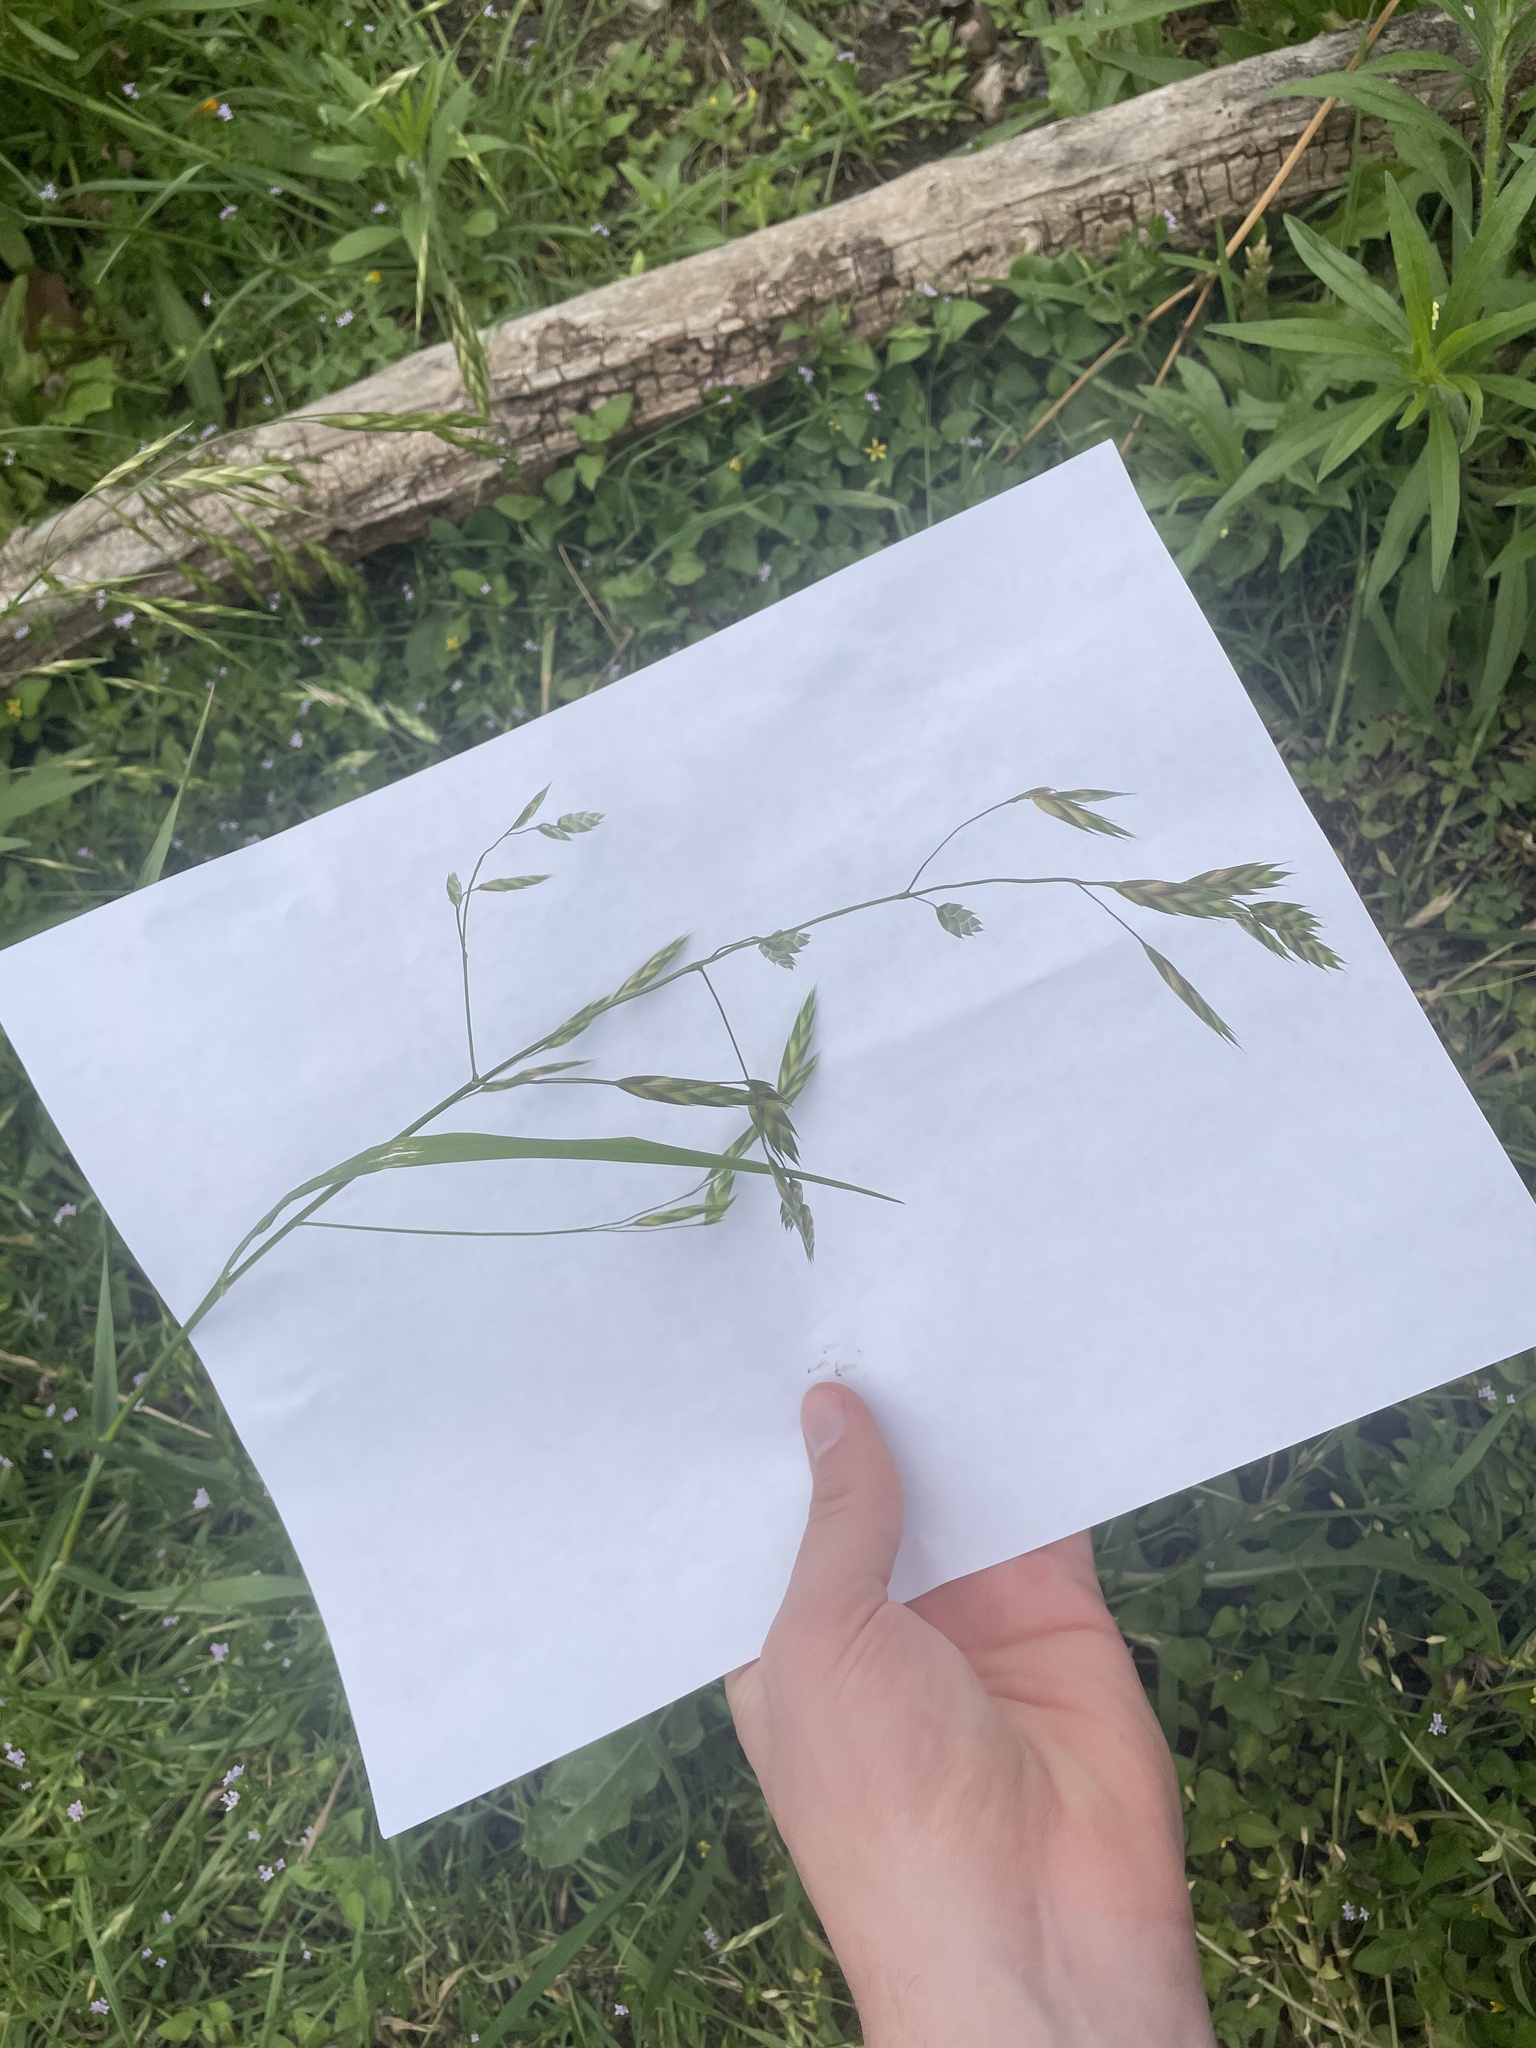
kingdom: Plantae
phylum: Tracheophyta
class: Liliopsida
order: Poales
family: Poaceae
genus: Bromus
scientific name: Bromus catharticus
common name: Rescuegrass
